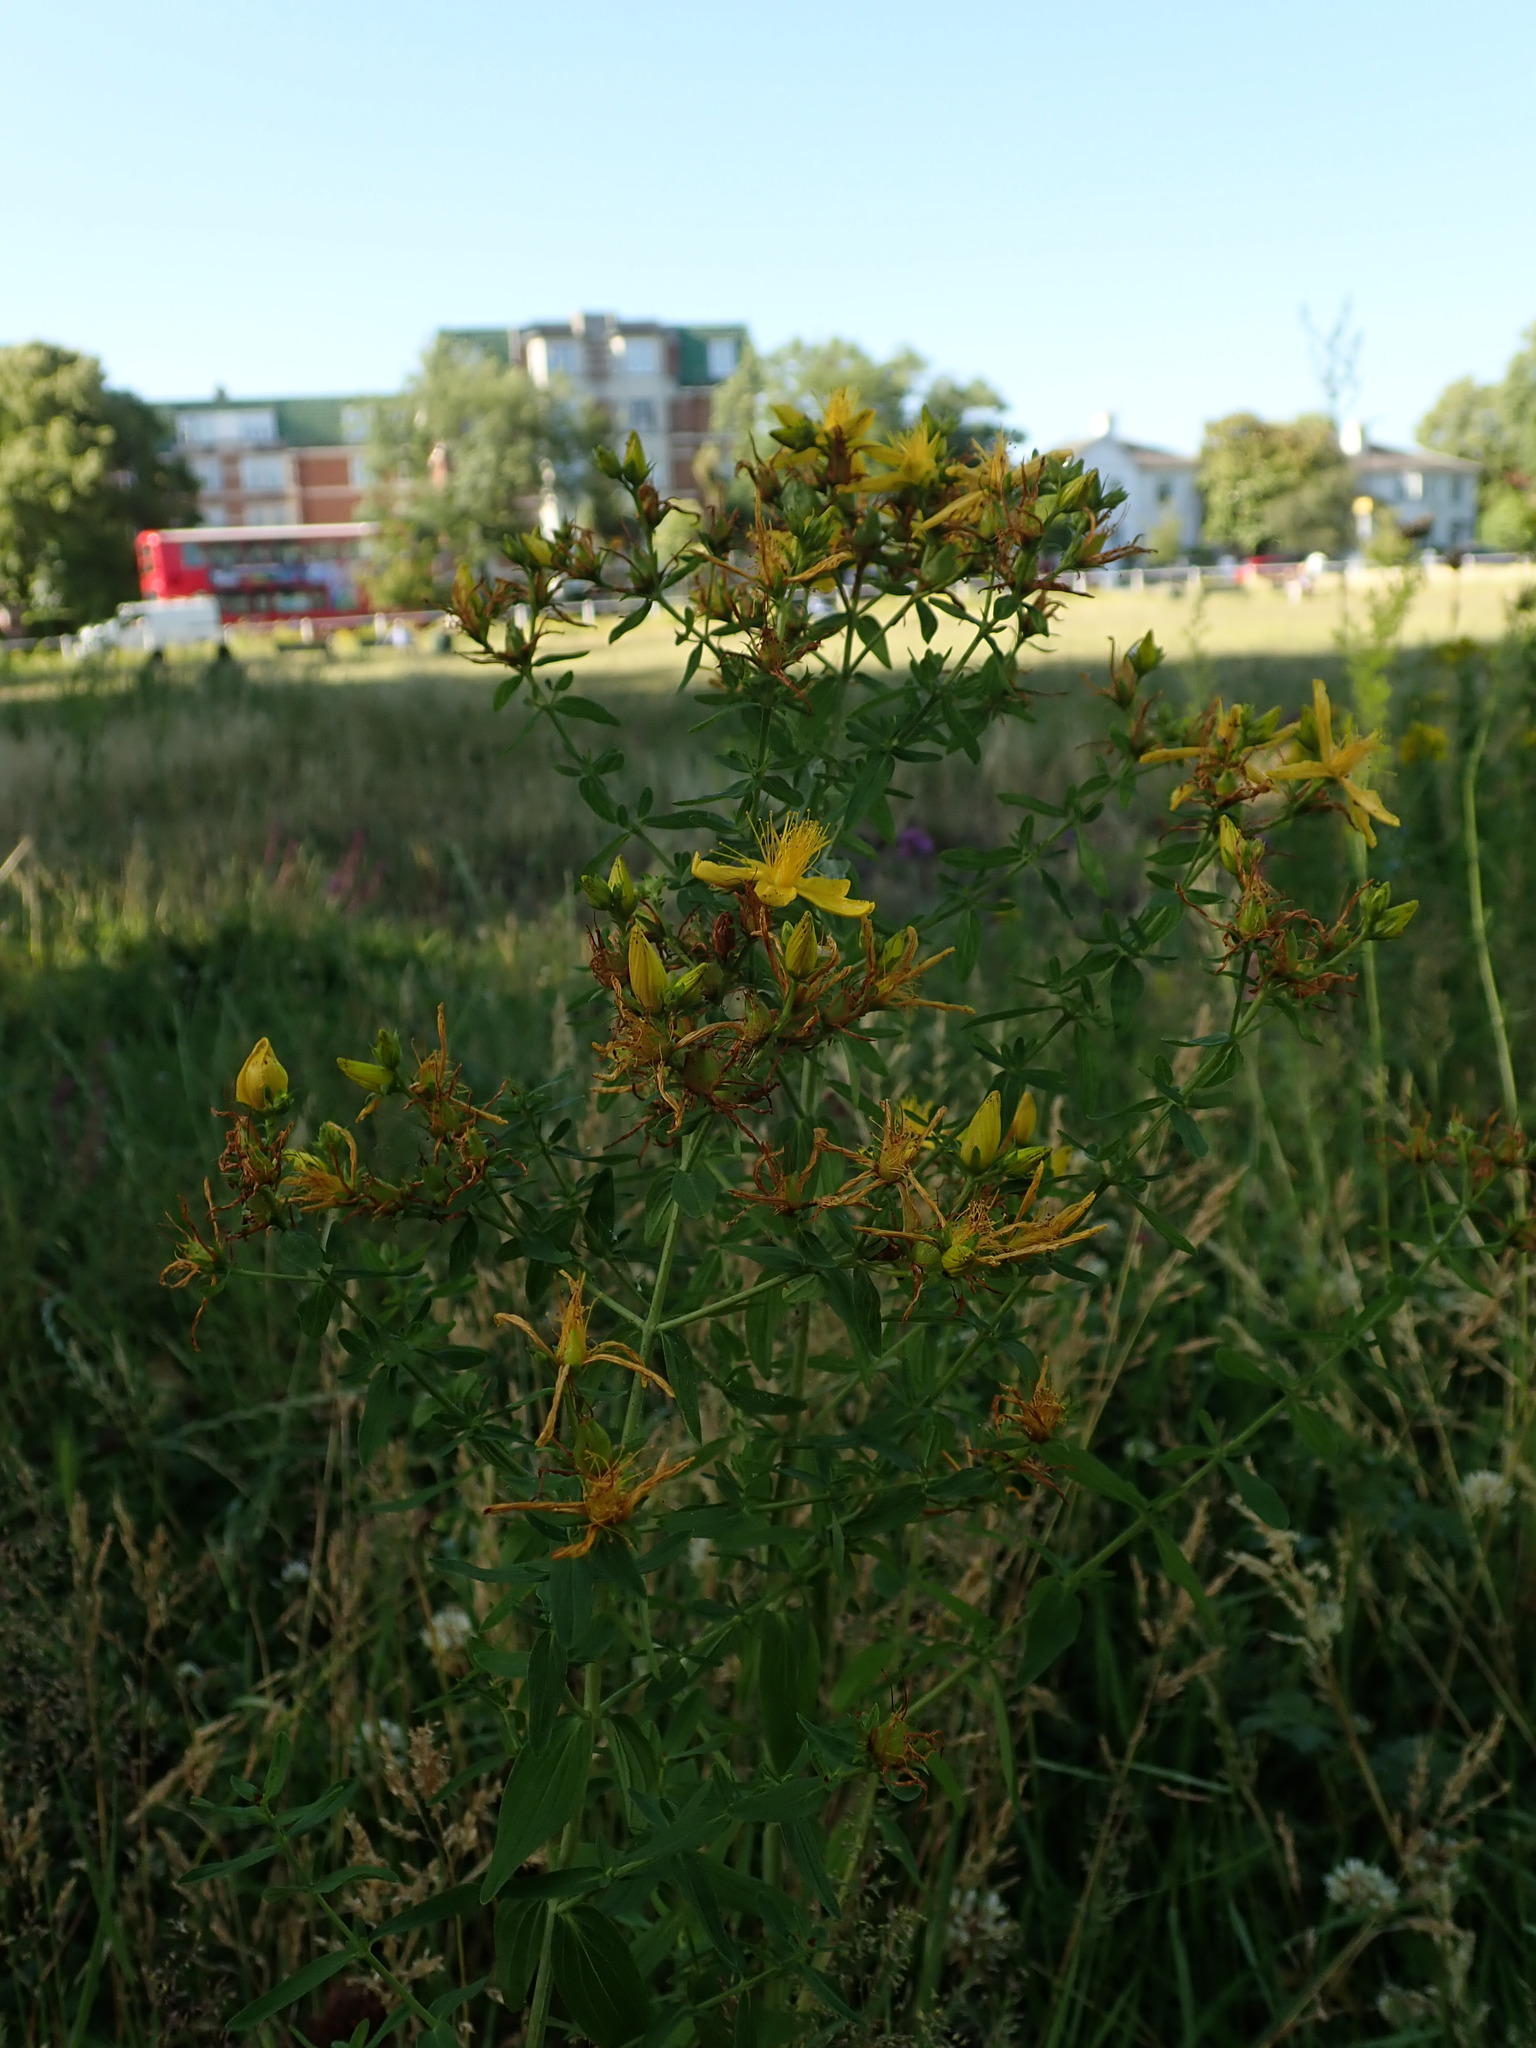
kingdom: Plantae
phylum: Tracheophyta
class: Magnoliopsida
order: Malpighiales
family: Hypericaceae
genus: Hypericum
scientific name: Hypericum perforatum
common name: Common st. johnswort
